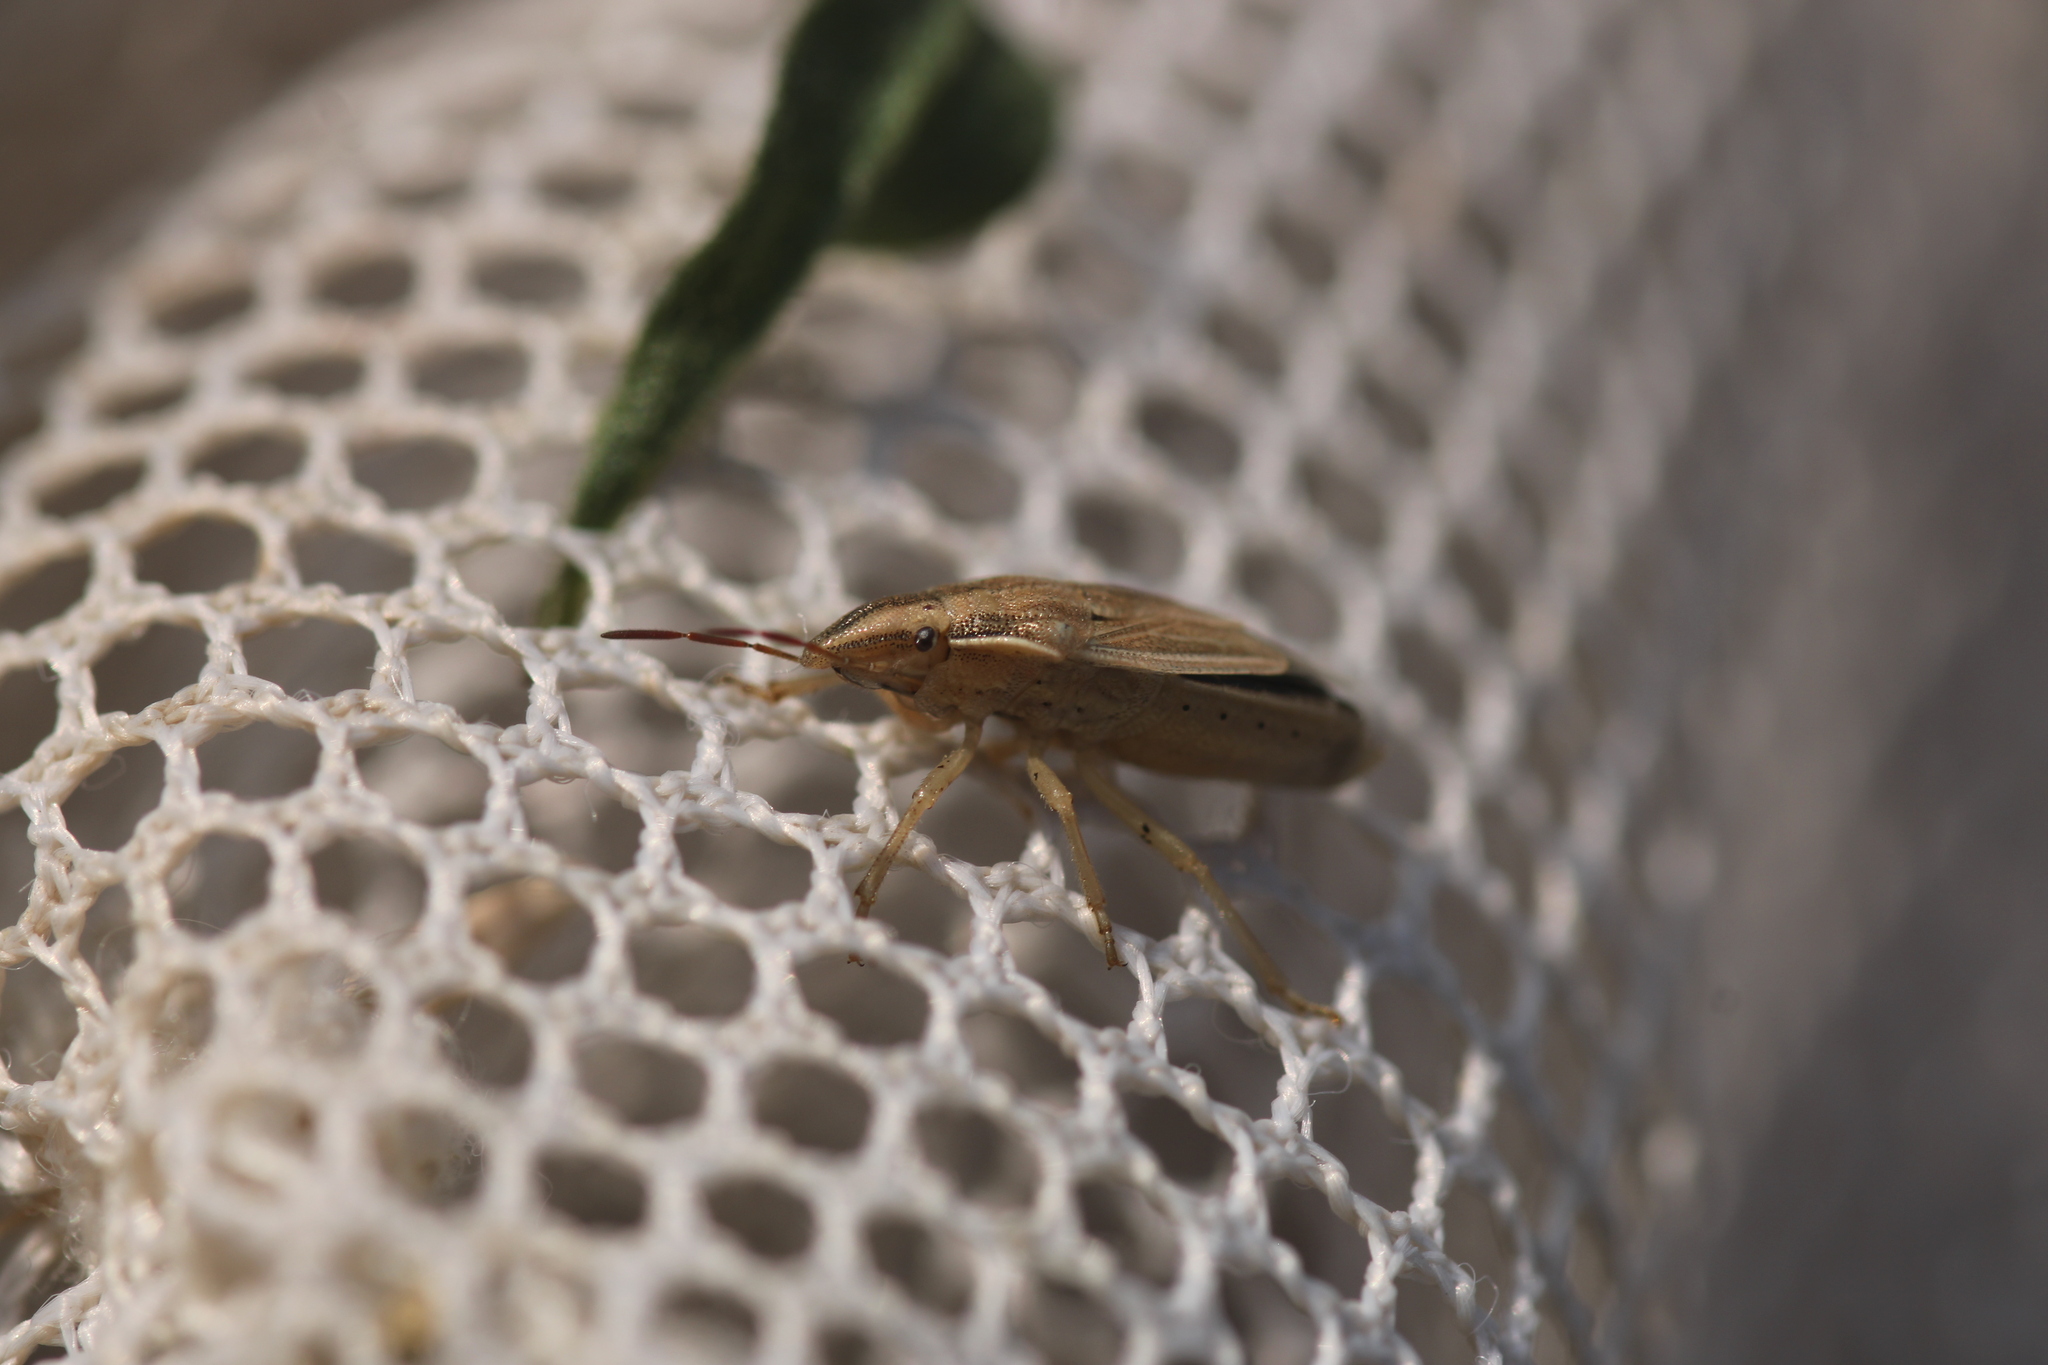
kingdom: Animalia
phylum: Arthropoda
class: Insecta
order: Hemiptera
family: Pentatomidae
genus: Aelia
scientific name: Aelia acuminata
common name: Bishop's mitre
